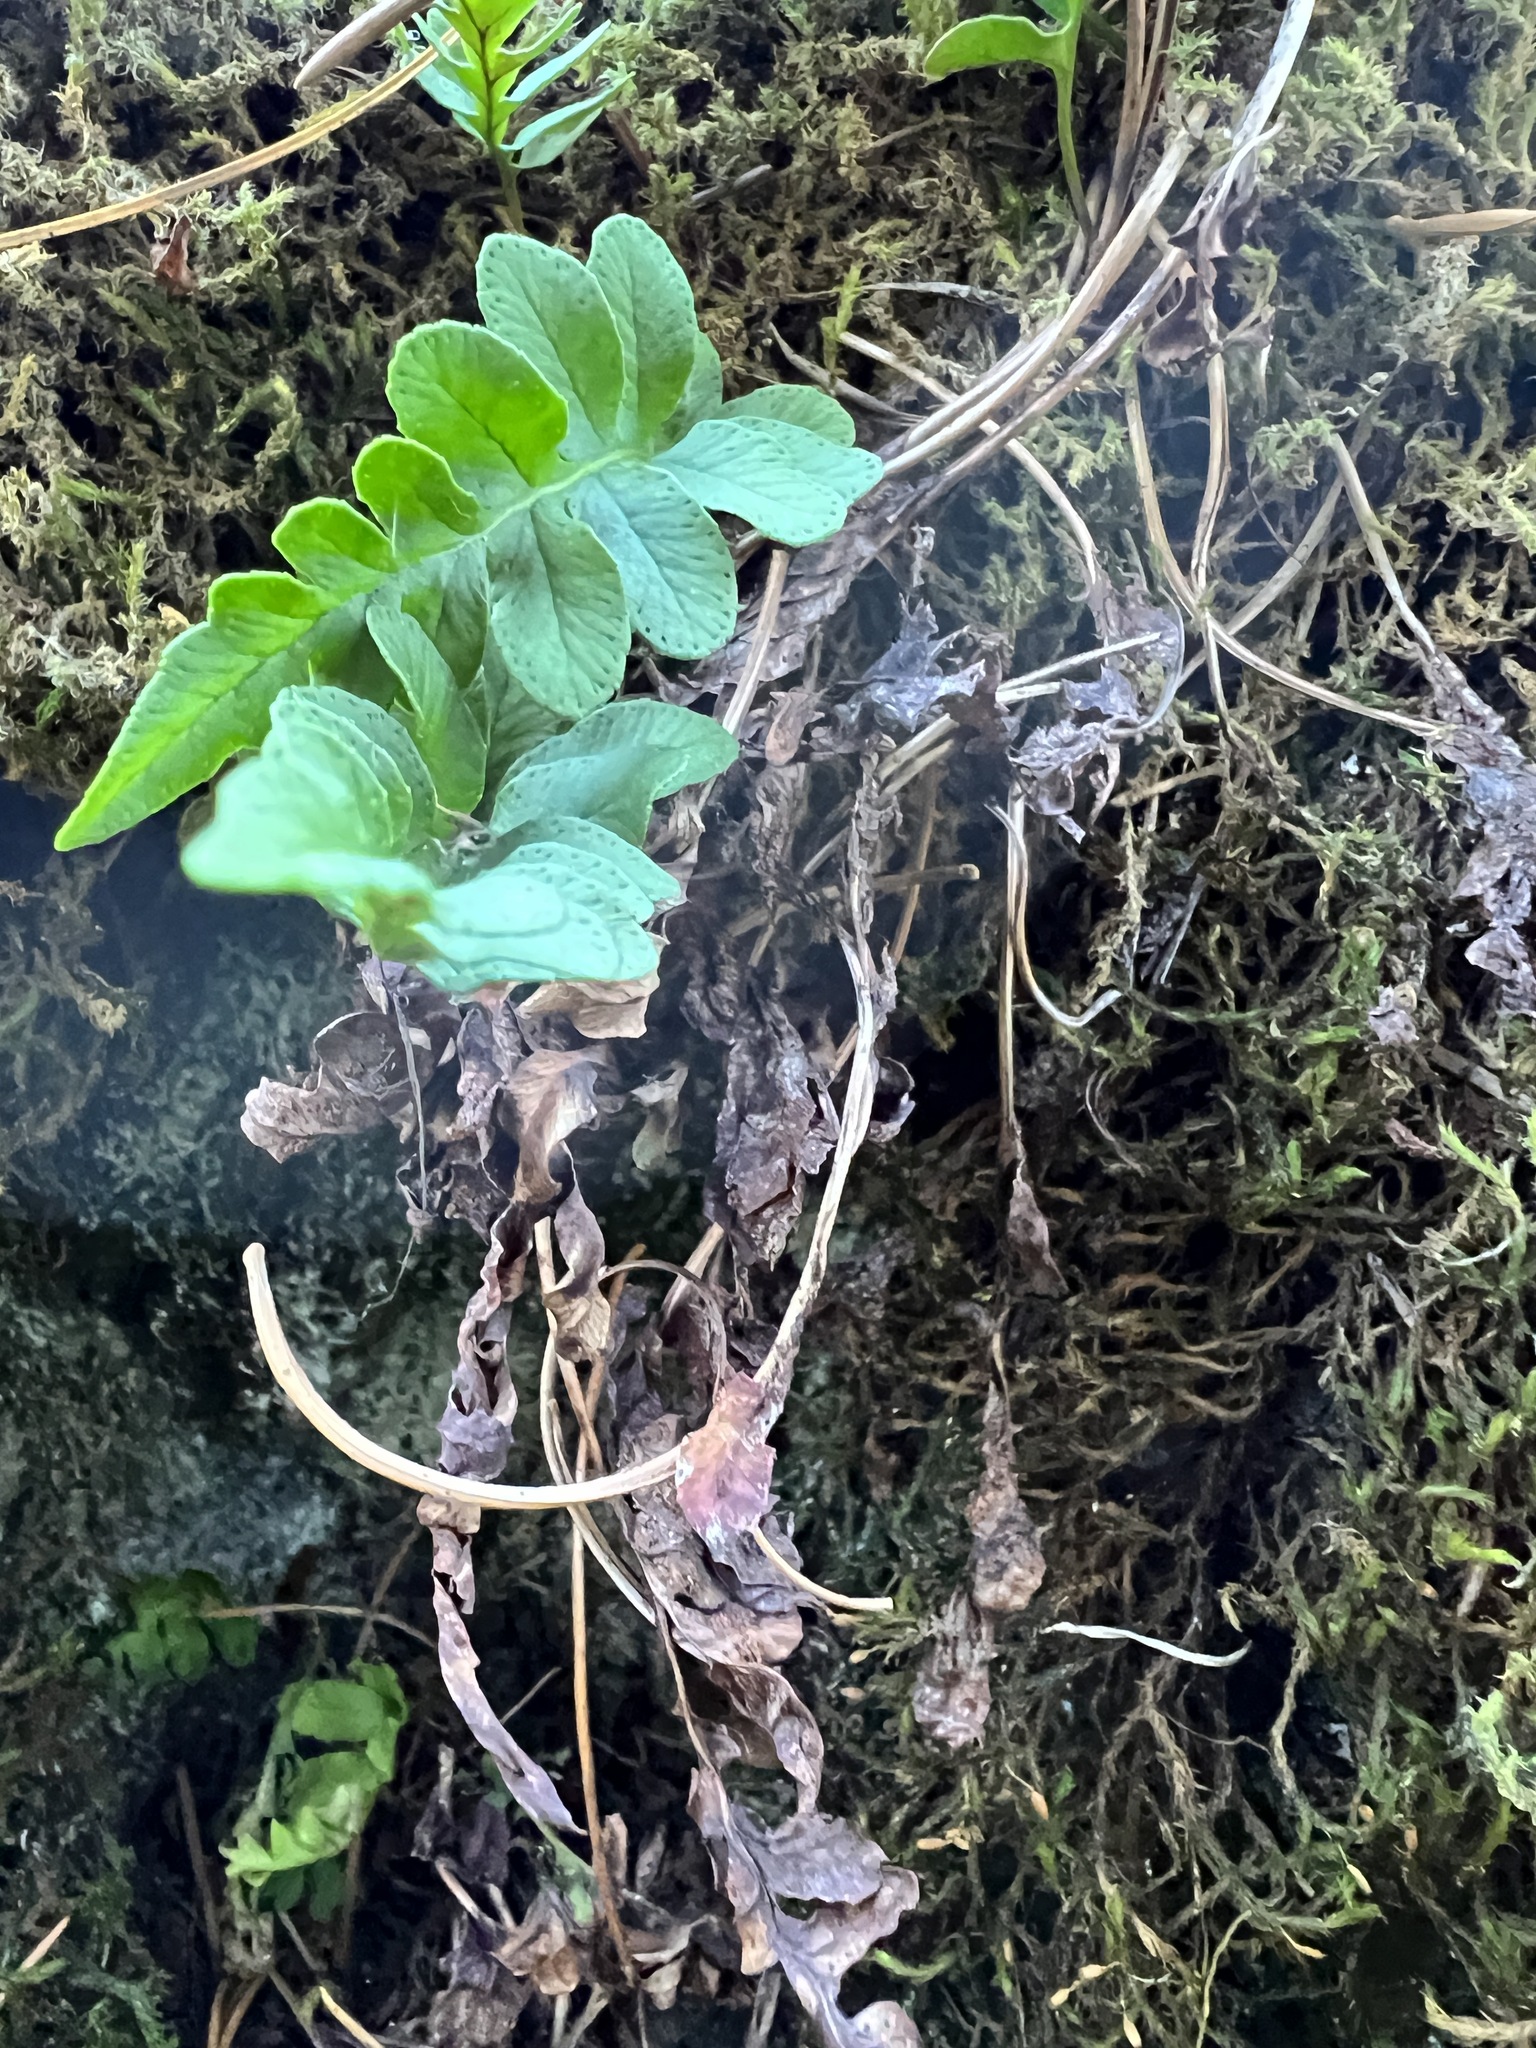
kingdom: Plantae
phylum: Tracheophyta
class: Polypodiopsida
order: Polypodiales
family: Polypodiaceae
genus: Polypodium
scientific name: Polypodium amorphum
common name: Pacific polypody
